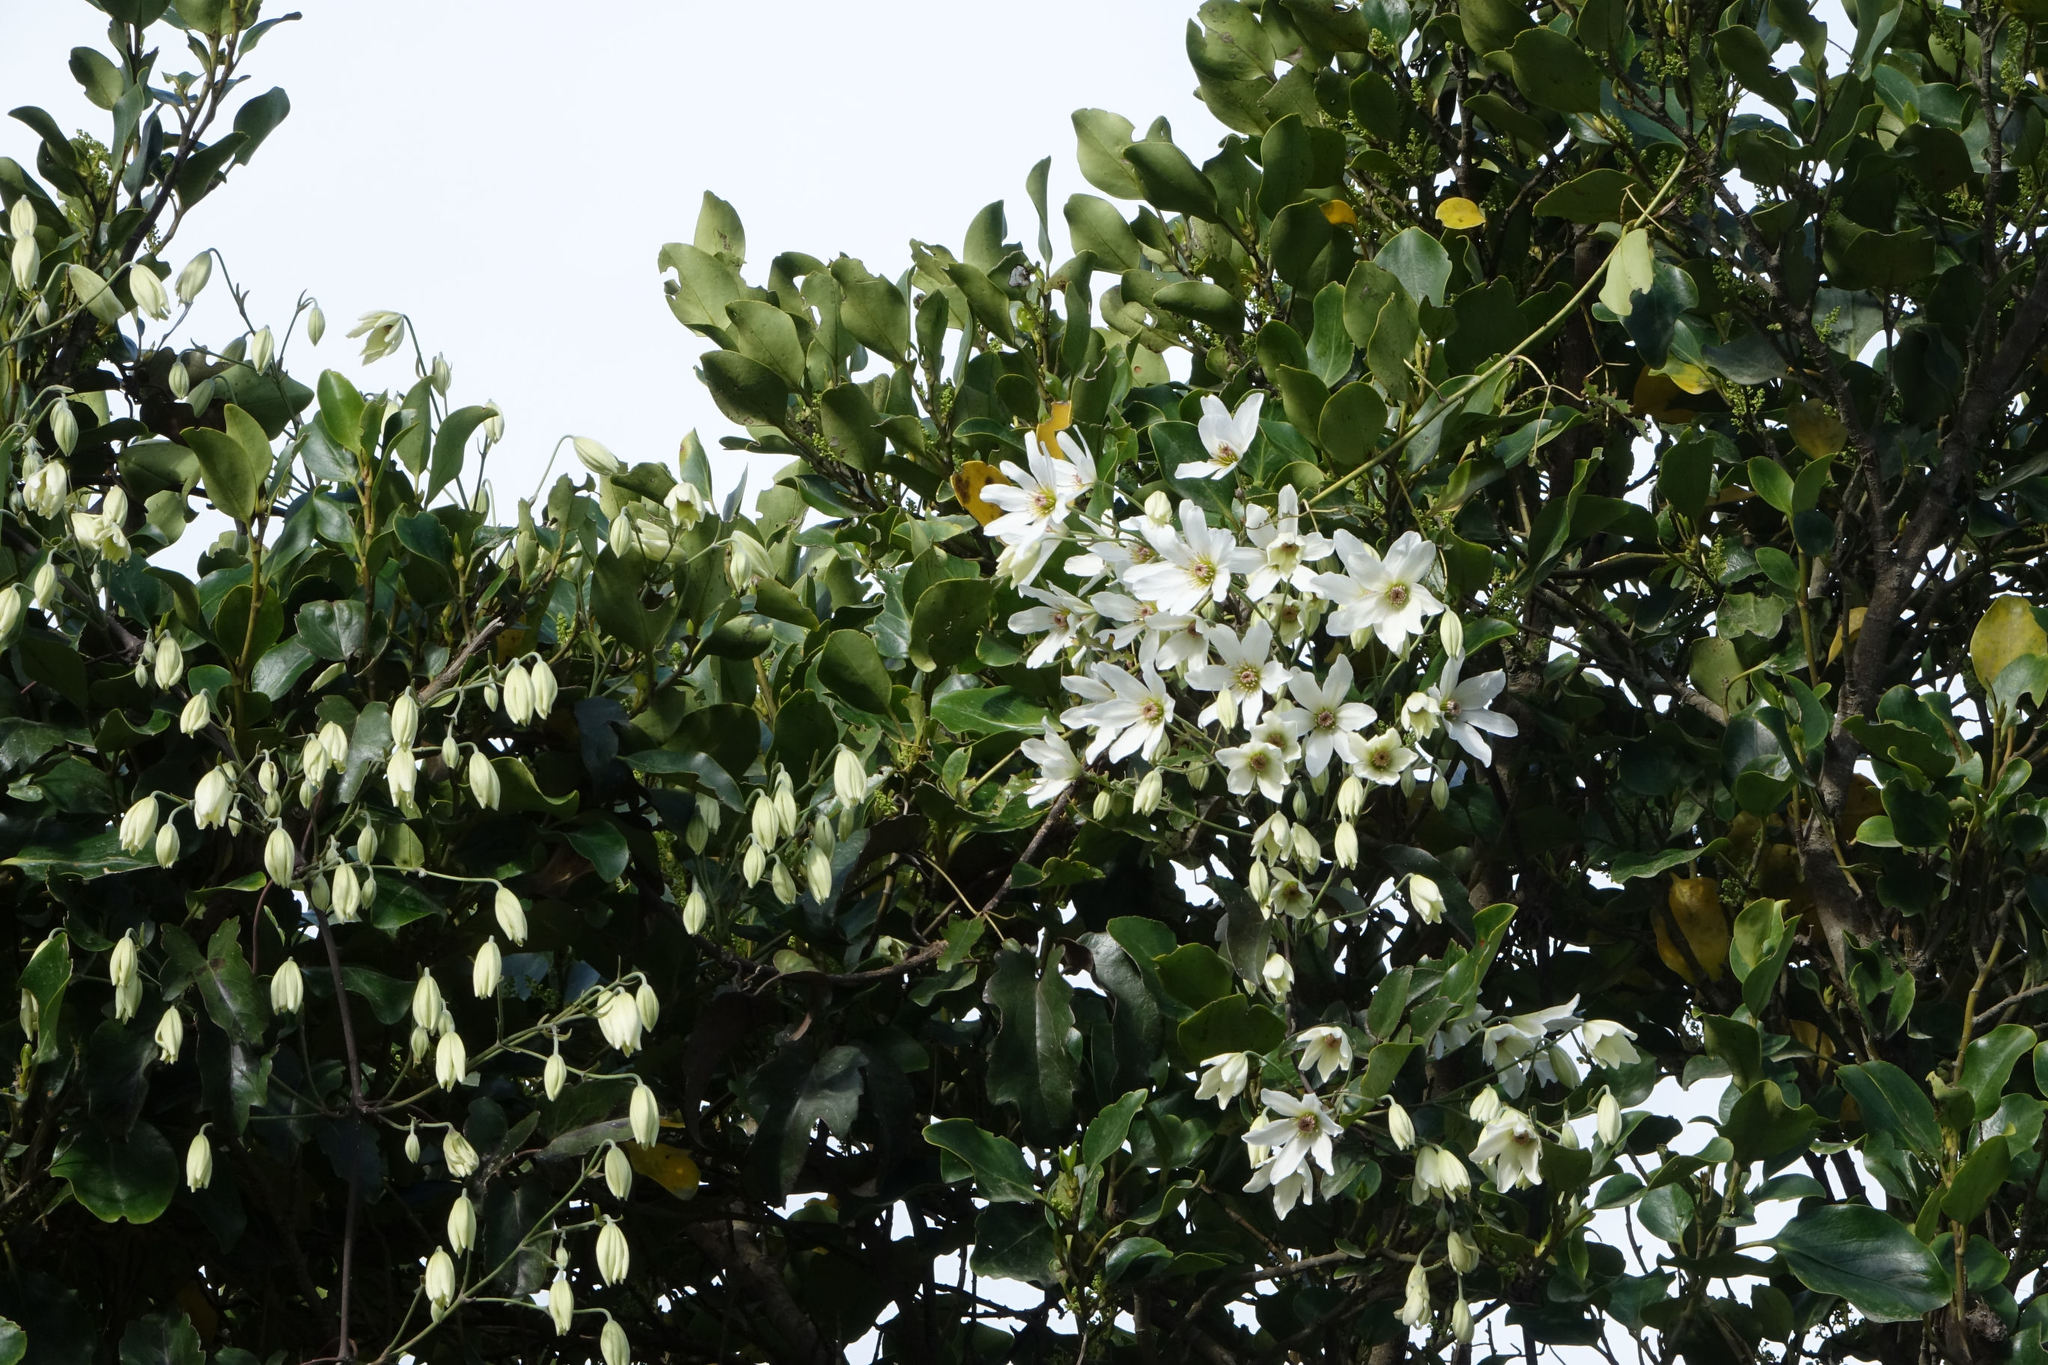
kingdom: Plantae
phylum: Tracheophyta
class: Magnoliopsida
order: Ranunculales
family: Ranunculaceae
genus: Clematis
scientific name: Clematis paniculata
